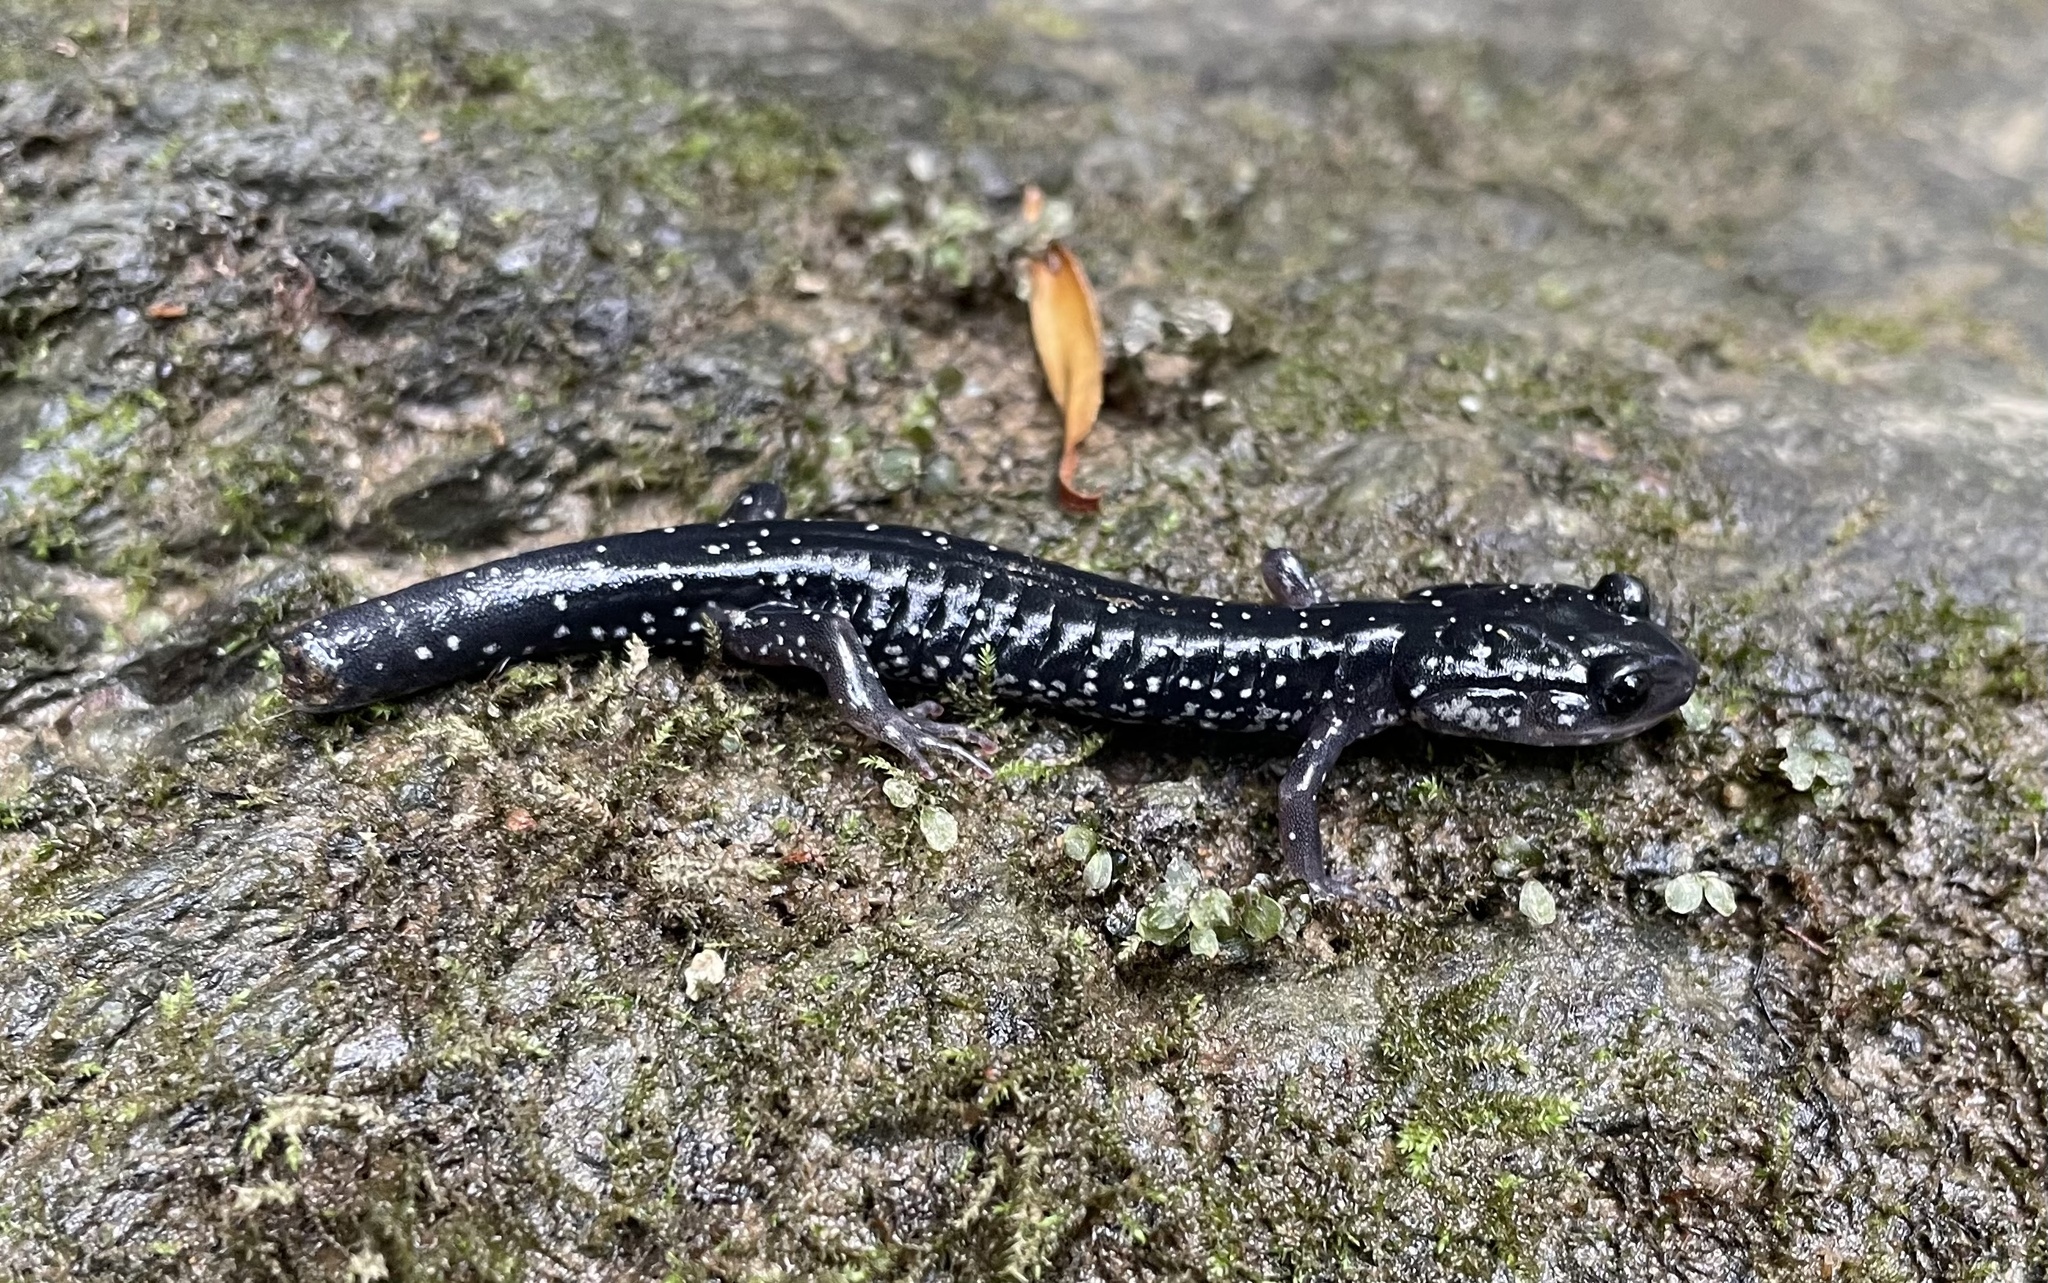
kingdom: Animalia
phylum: Chordata
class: Amphibia
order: Caudata
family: Plethodontidae
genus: Plethodon
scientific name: Plethodon cylindraceus
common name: White-spotted slimy salamander
